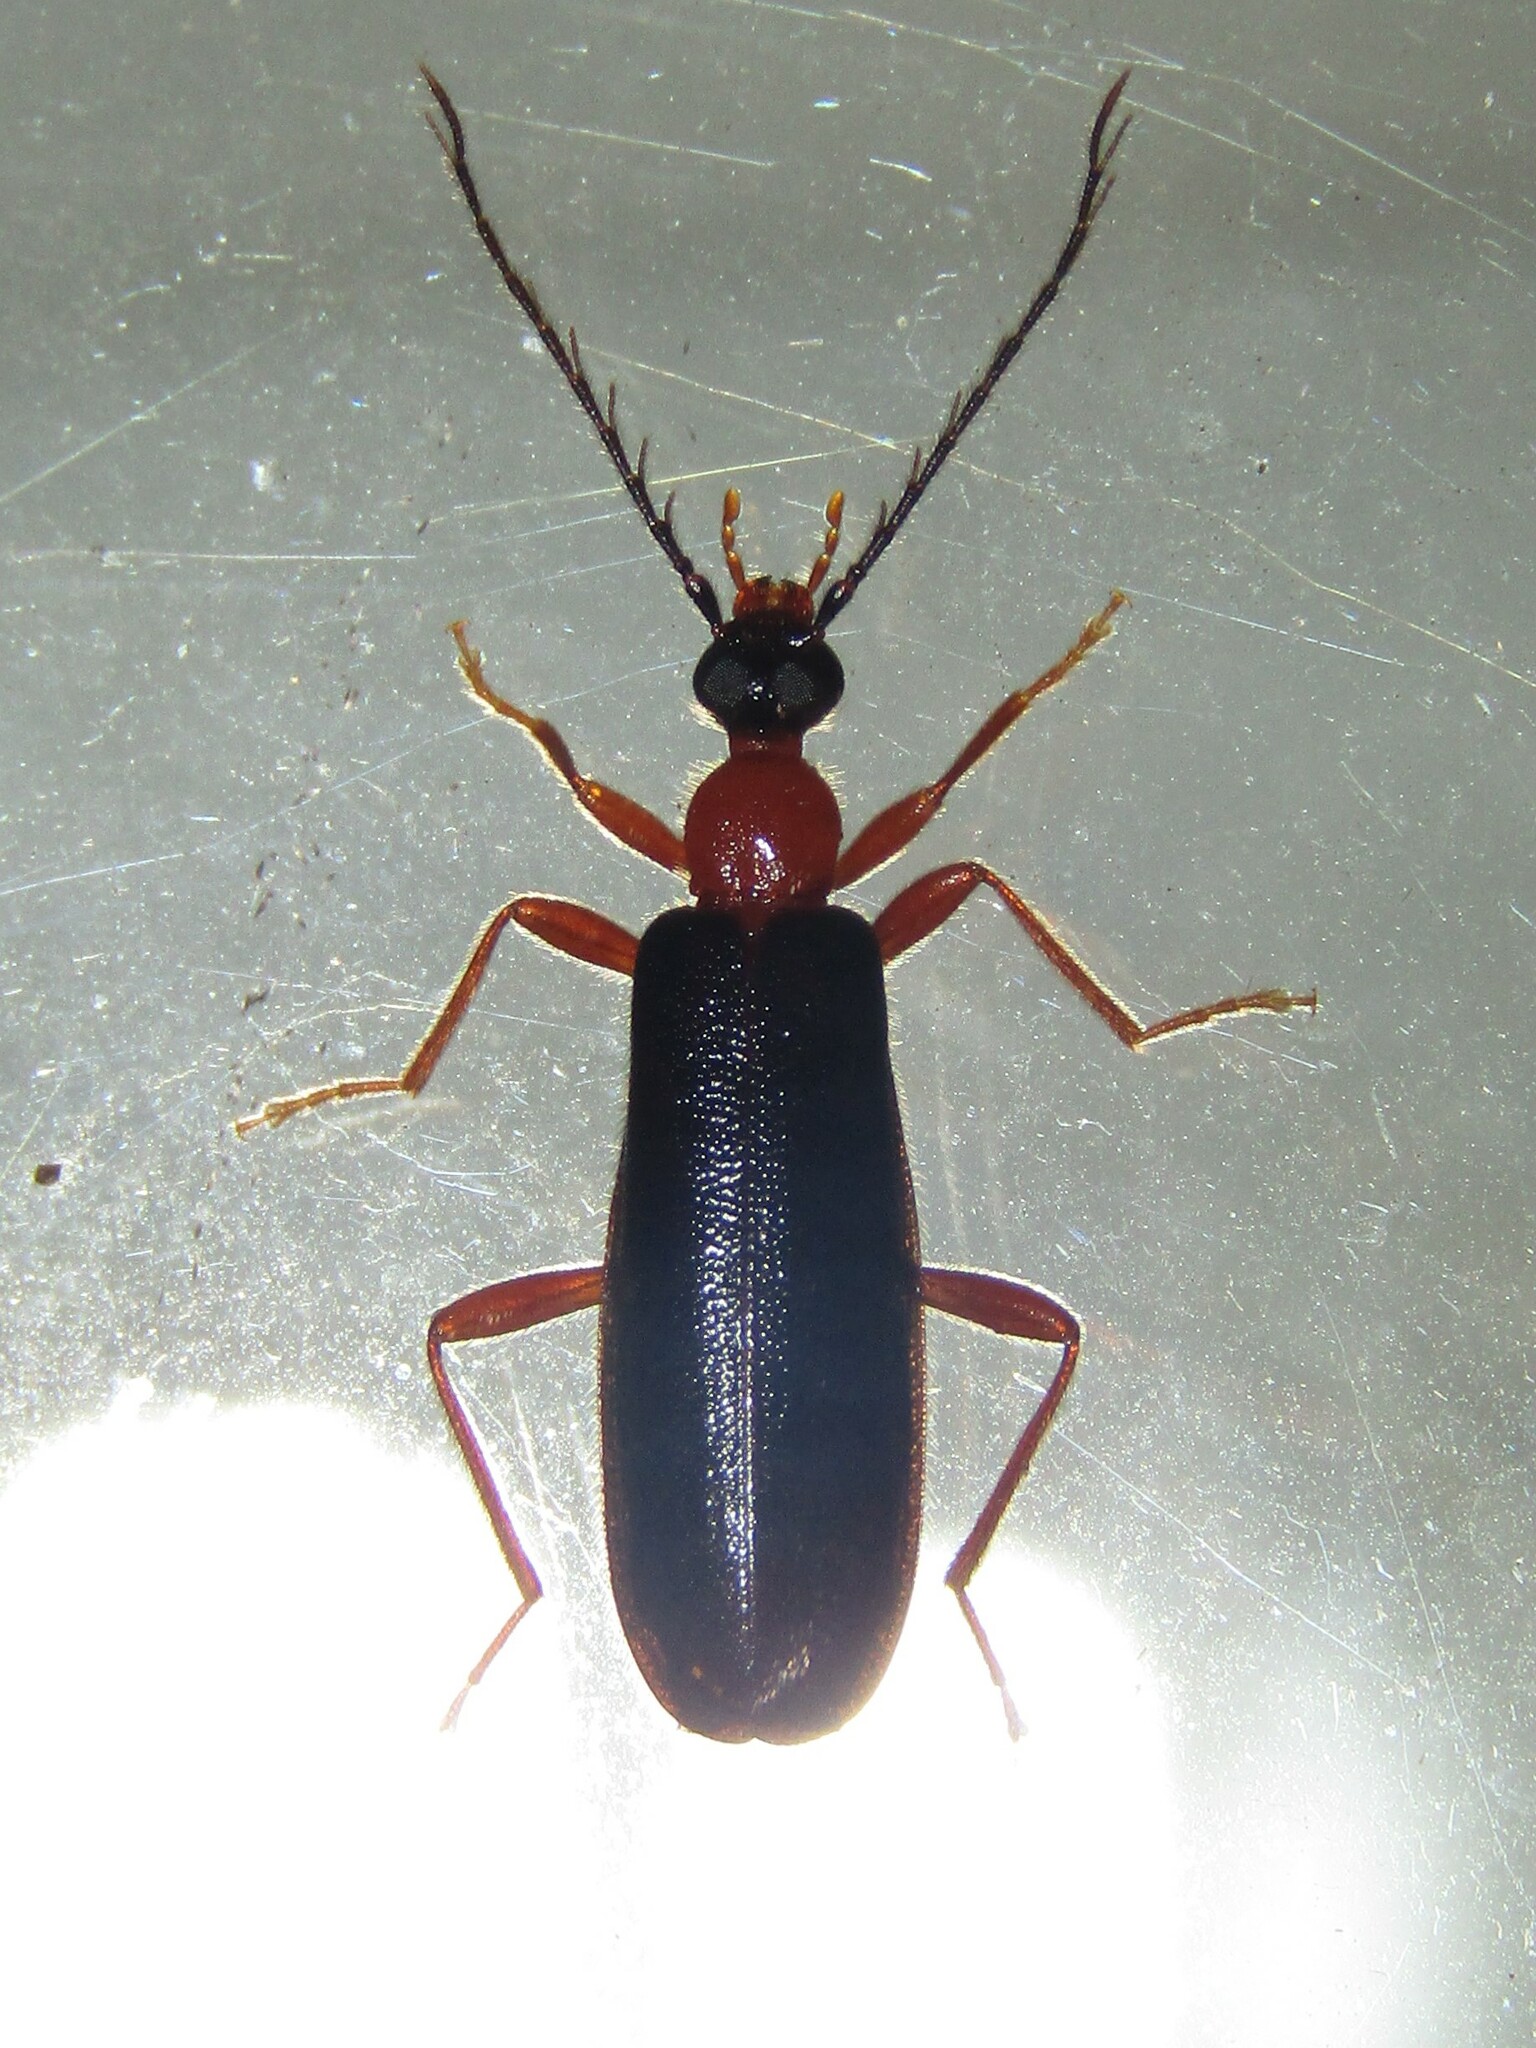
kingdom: Animalia
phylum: Arthropoda
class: Insecta
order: Coleoptera
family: Pyrochroidae
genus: Dendroides
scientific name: Dendroides canadensis
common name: Canada fire-colored beetle
